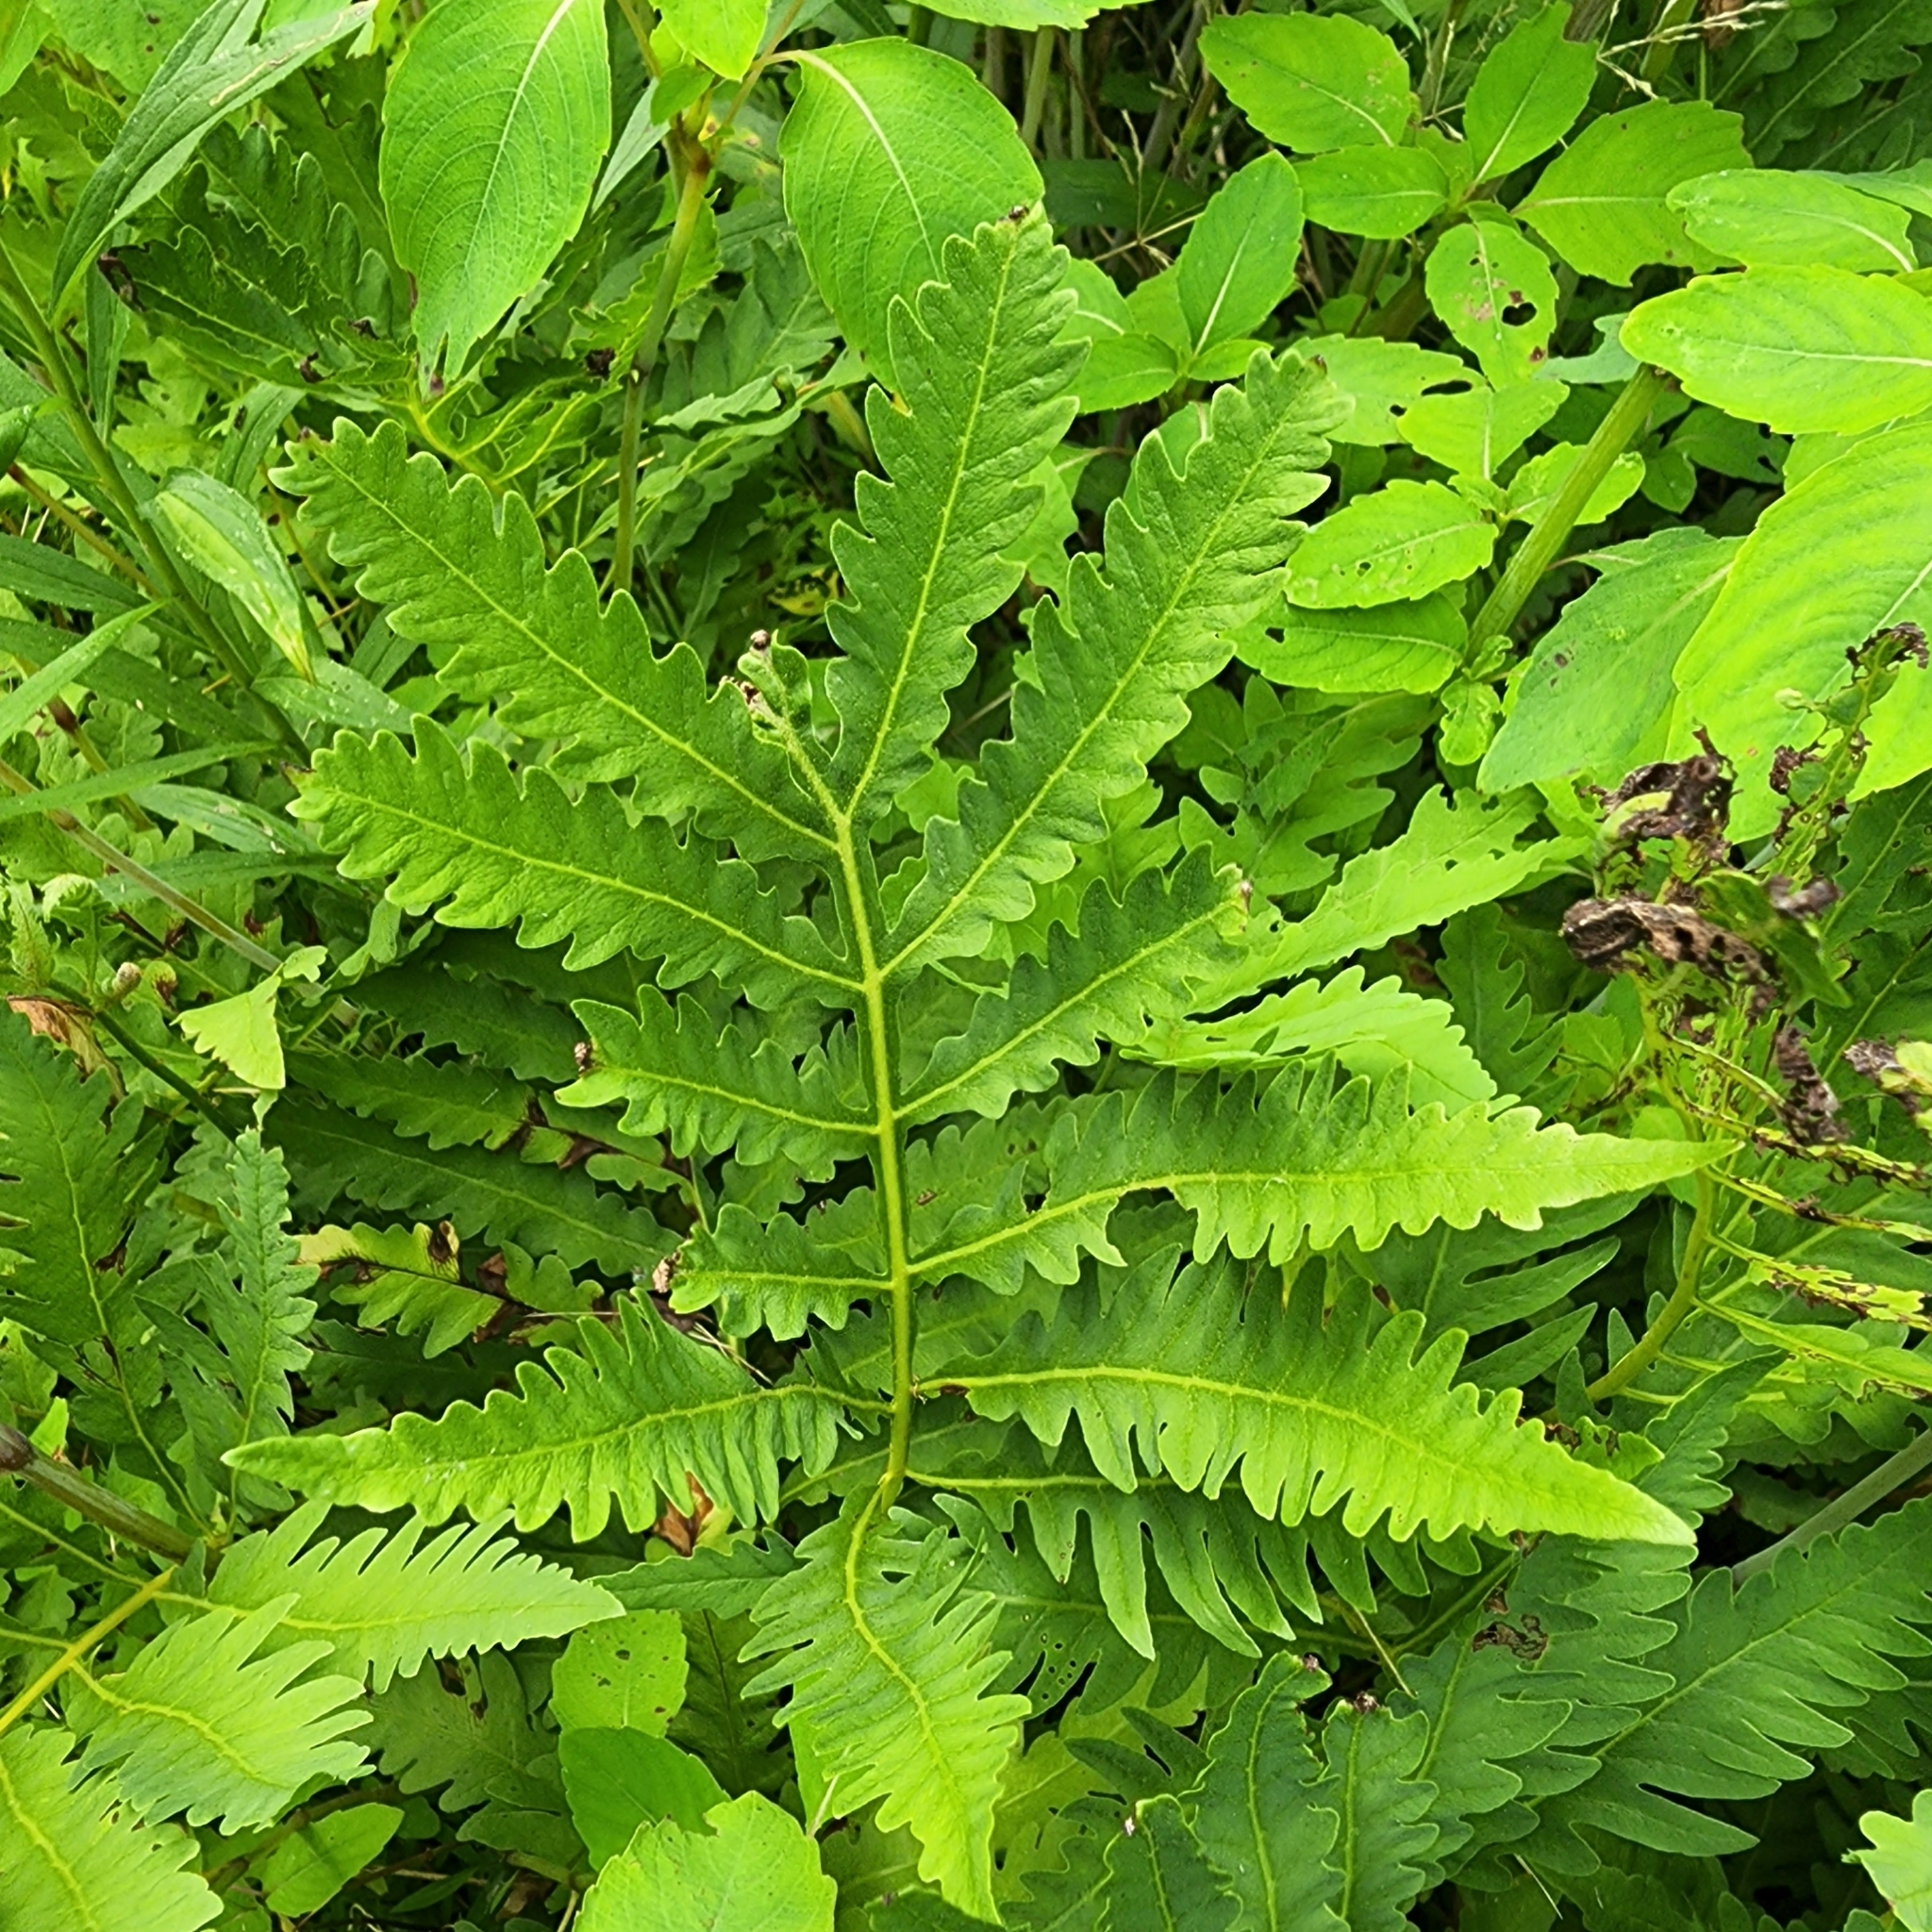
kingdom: Plantae
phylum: Tracheophyta
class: Polypodiopsida
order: Polypodiales
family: Onocleaceae
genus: Onoclea
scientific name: Onoclea sensibilis
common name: Sensitive fern
